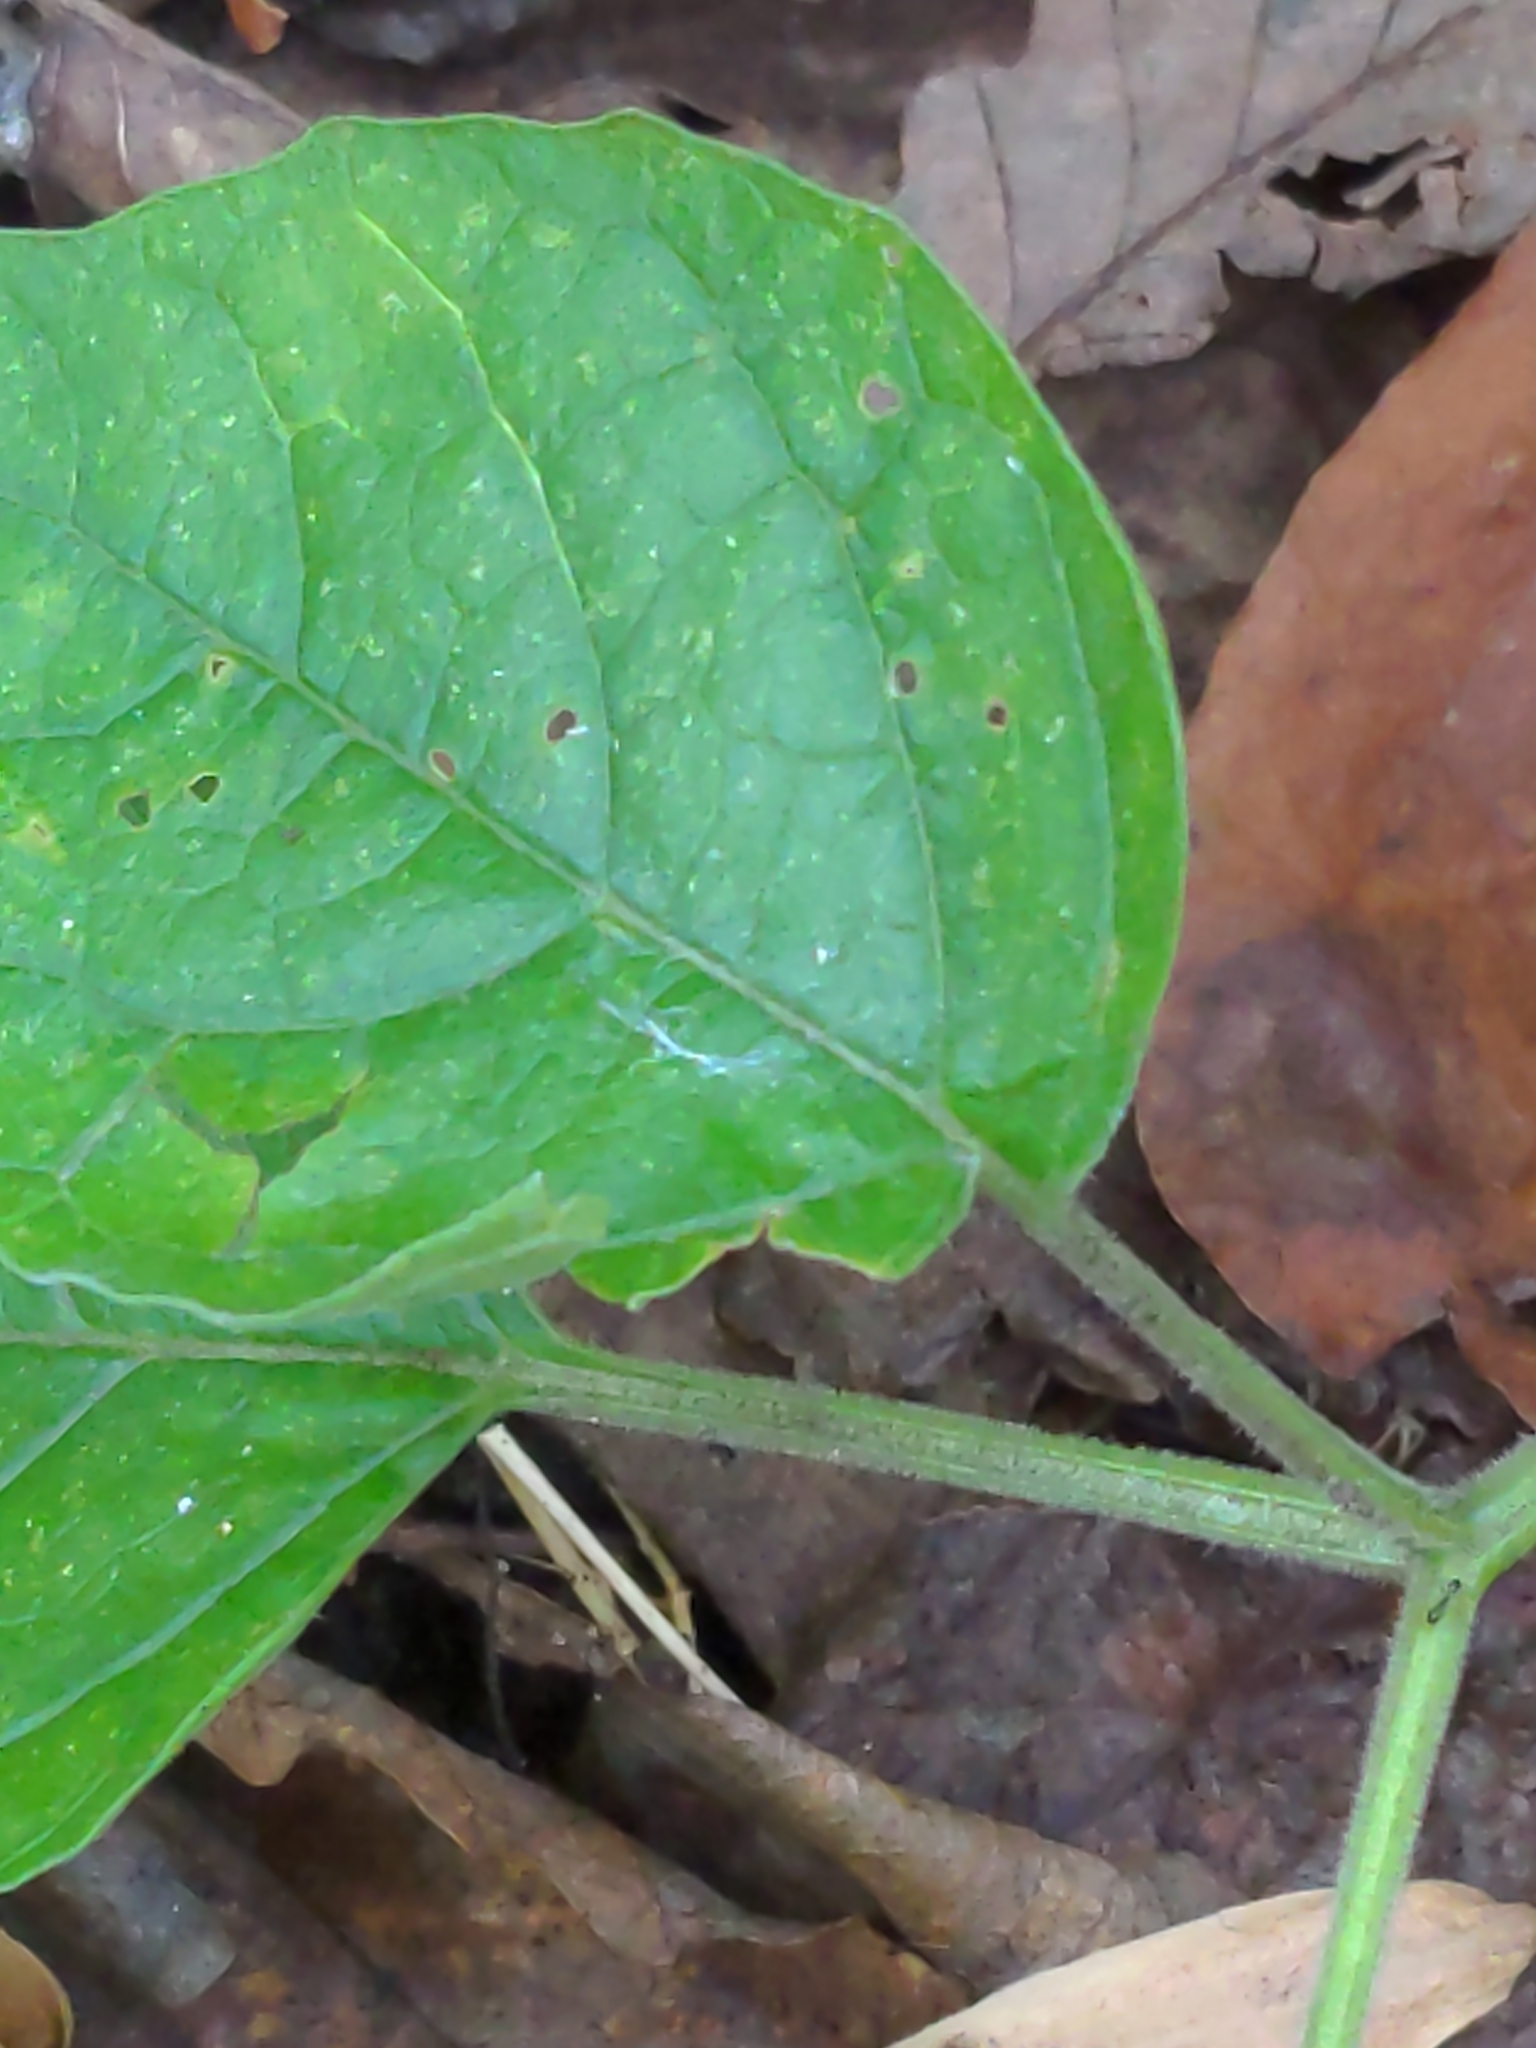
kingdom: Plantae
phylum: Tracheophyta
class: Magnoliopsida
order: Solanales
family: Solanaceae
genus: Physalis
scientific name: Physalis heterophylla
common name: Clammy ground-cherry
